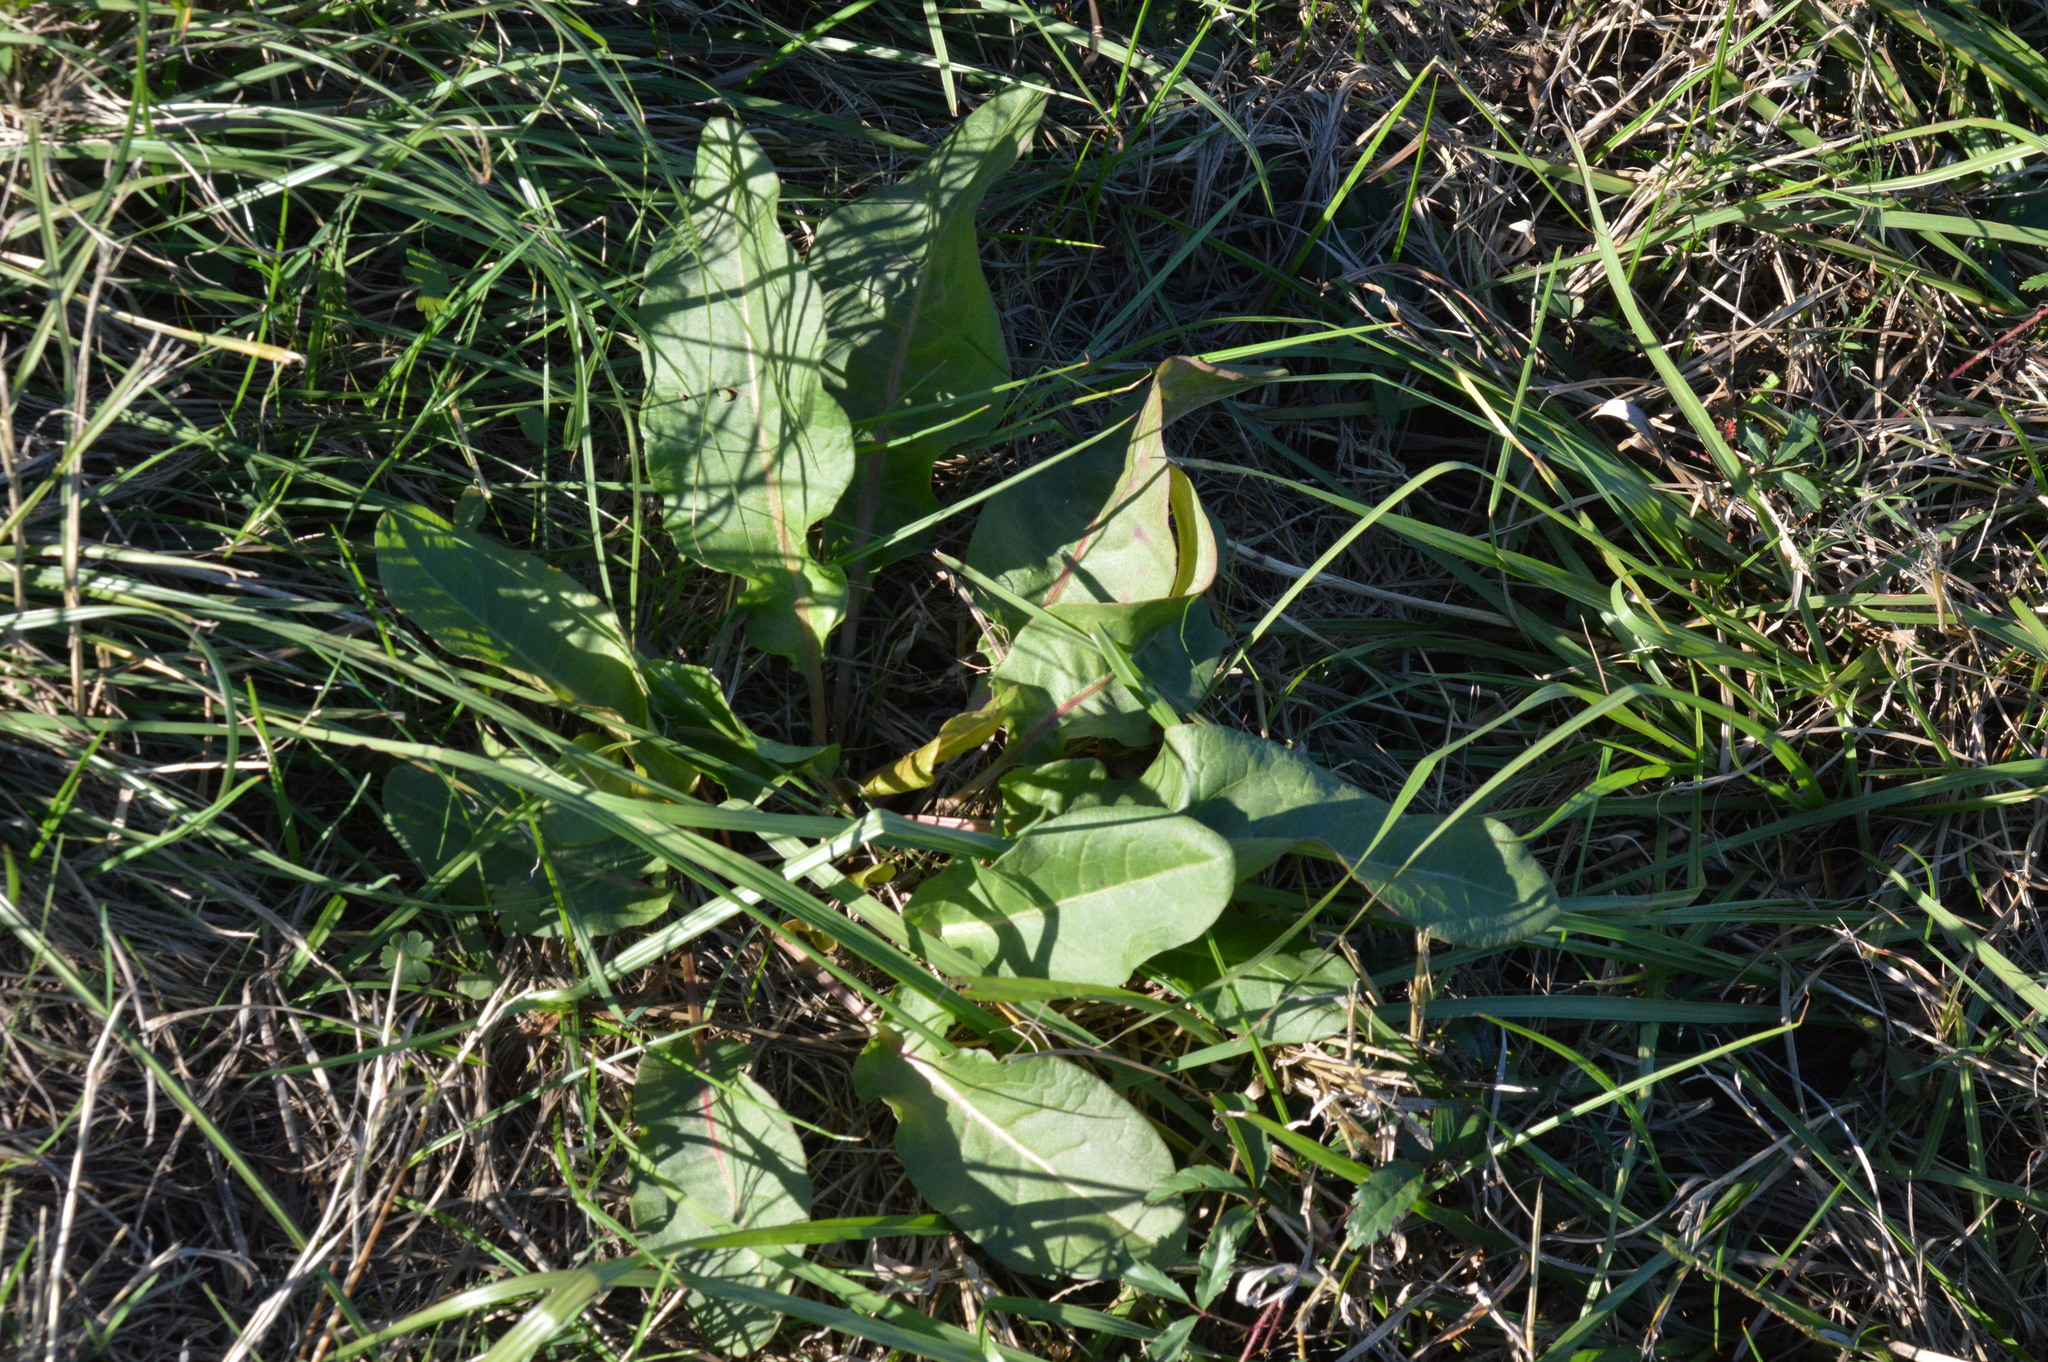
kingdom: Plantae
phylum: Tracheophyta
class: Magnoliopsida
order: Caryophyllales
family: Polygonaceae
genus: Rumex
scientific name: Rumex crispus
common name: Curled dock
